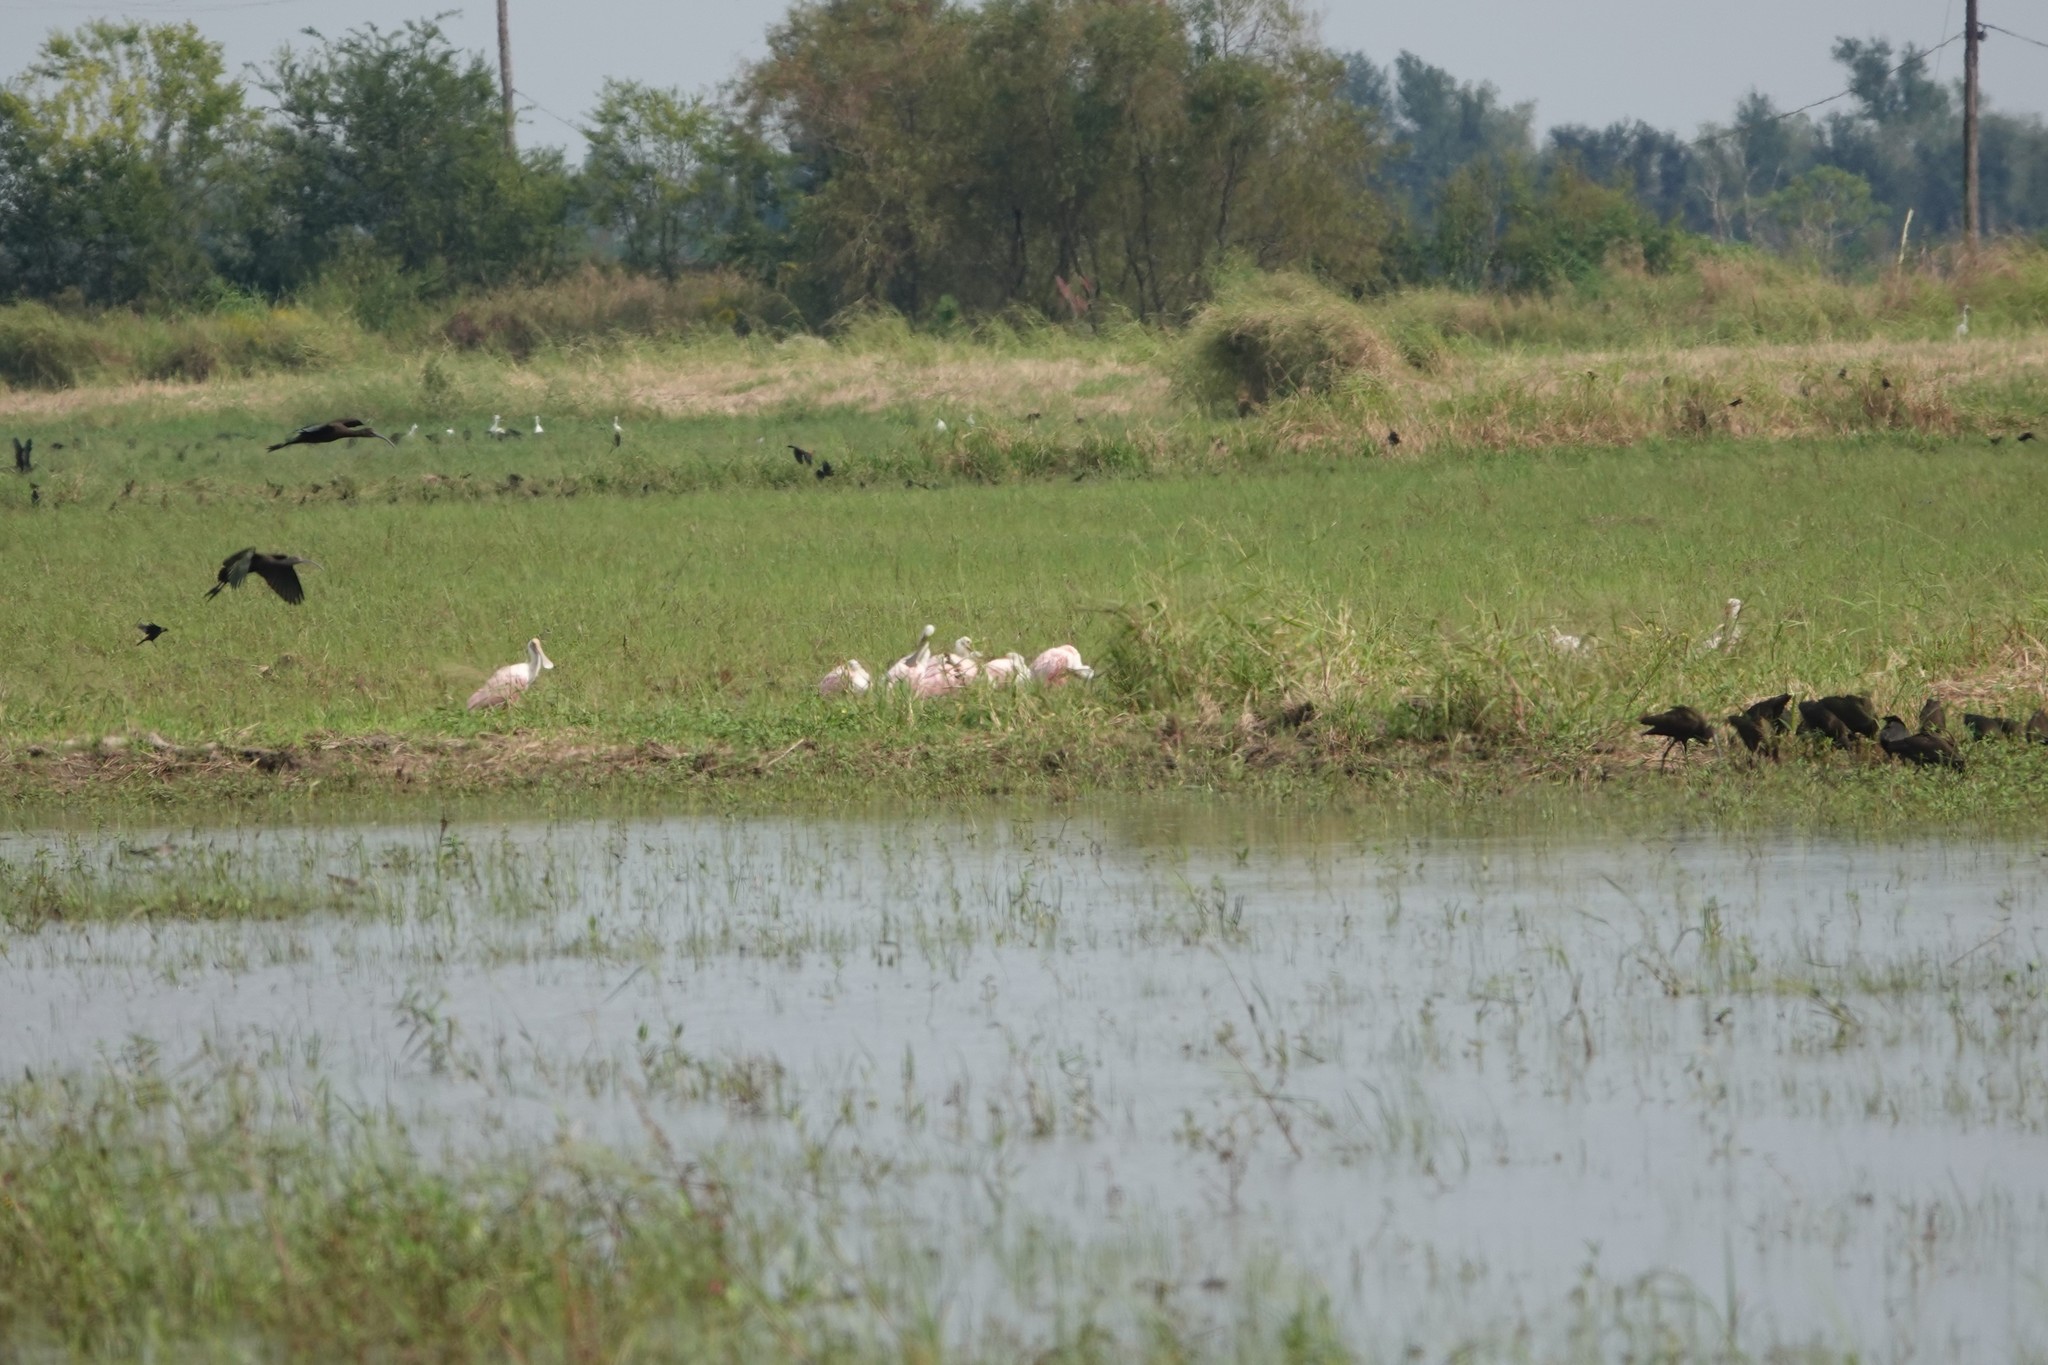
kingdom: Animalia
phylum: Chordata
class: Aves
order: Pelecaniformes
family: Threskiornithidae
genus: Platalea
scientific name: Platalea ajaja
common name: Roseate spoonbill
